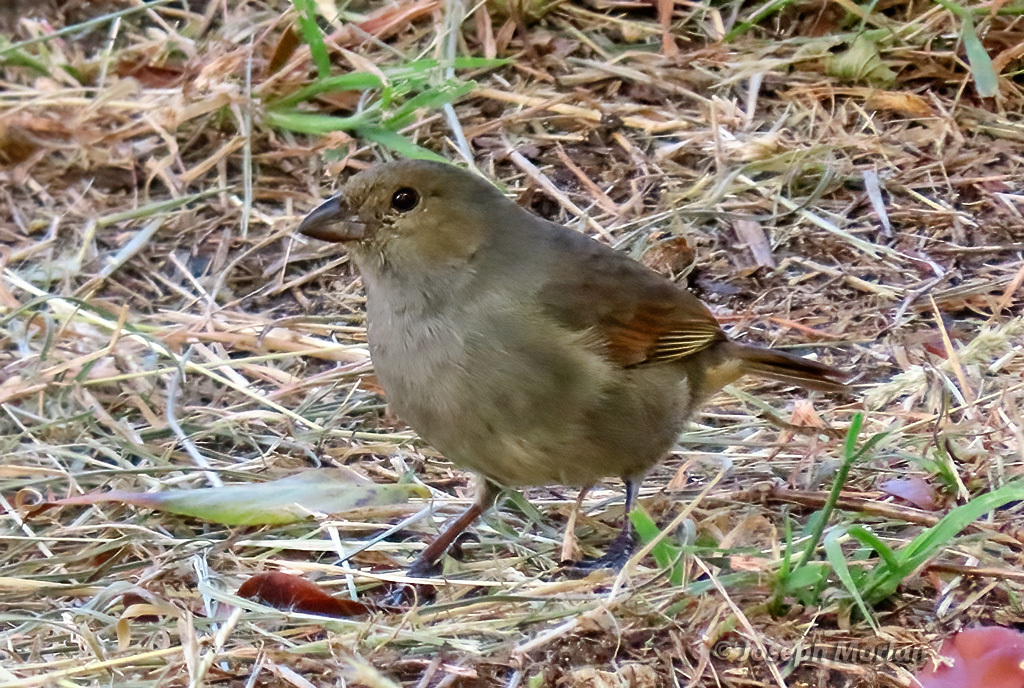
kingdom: Animalia
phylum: Chordata
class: Aves
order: Passeriformes
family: Thraupidae
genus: Loxigilla
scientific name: Loxigilla barbadensis
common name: Barbados bullfinch
